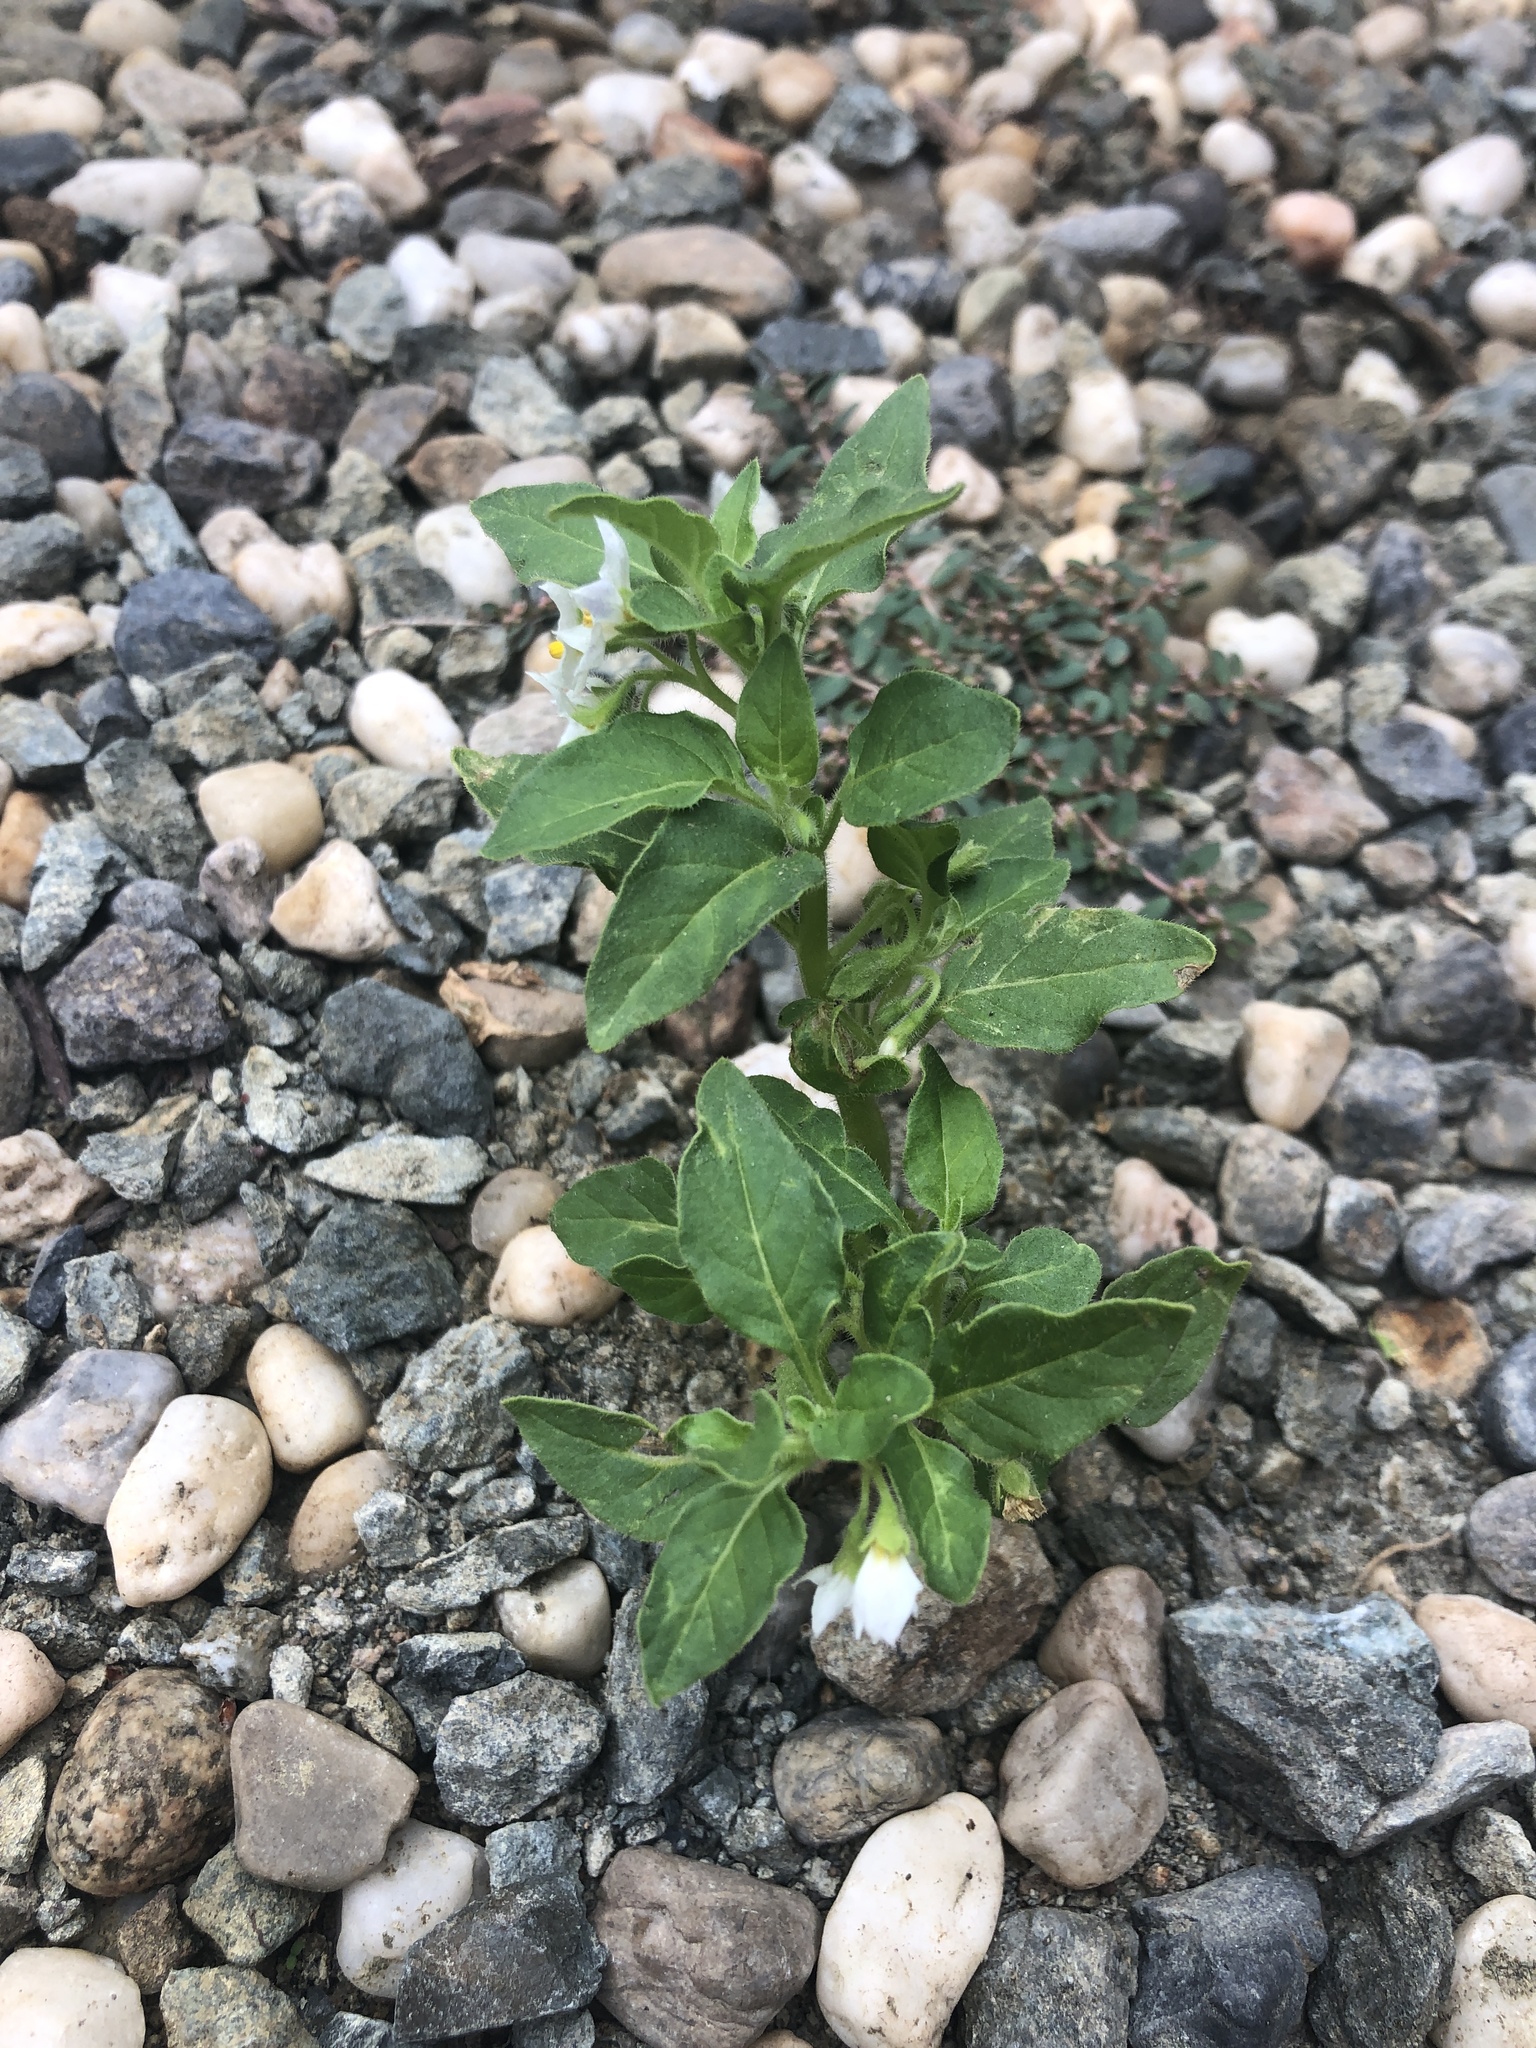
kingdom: Plantae
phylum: Tracheophyta
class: Magnoliopsida
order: Solanales
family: Solanaceae
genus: Solanum
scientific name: Solanum nitidibaccatum
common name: Hairy nightshade
